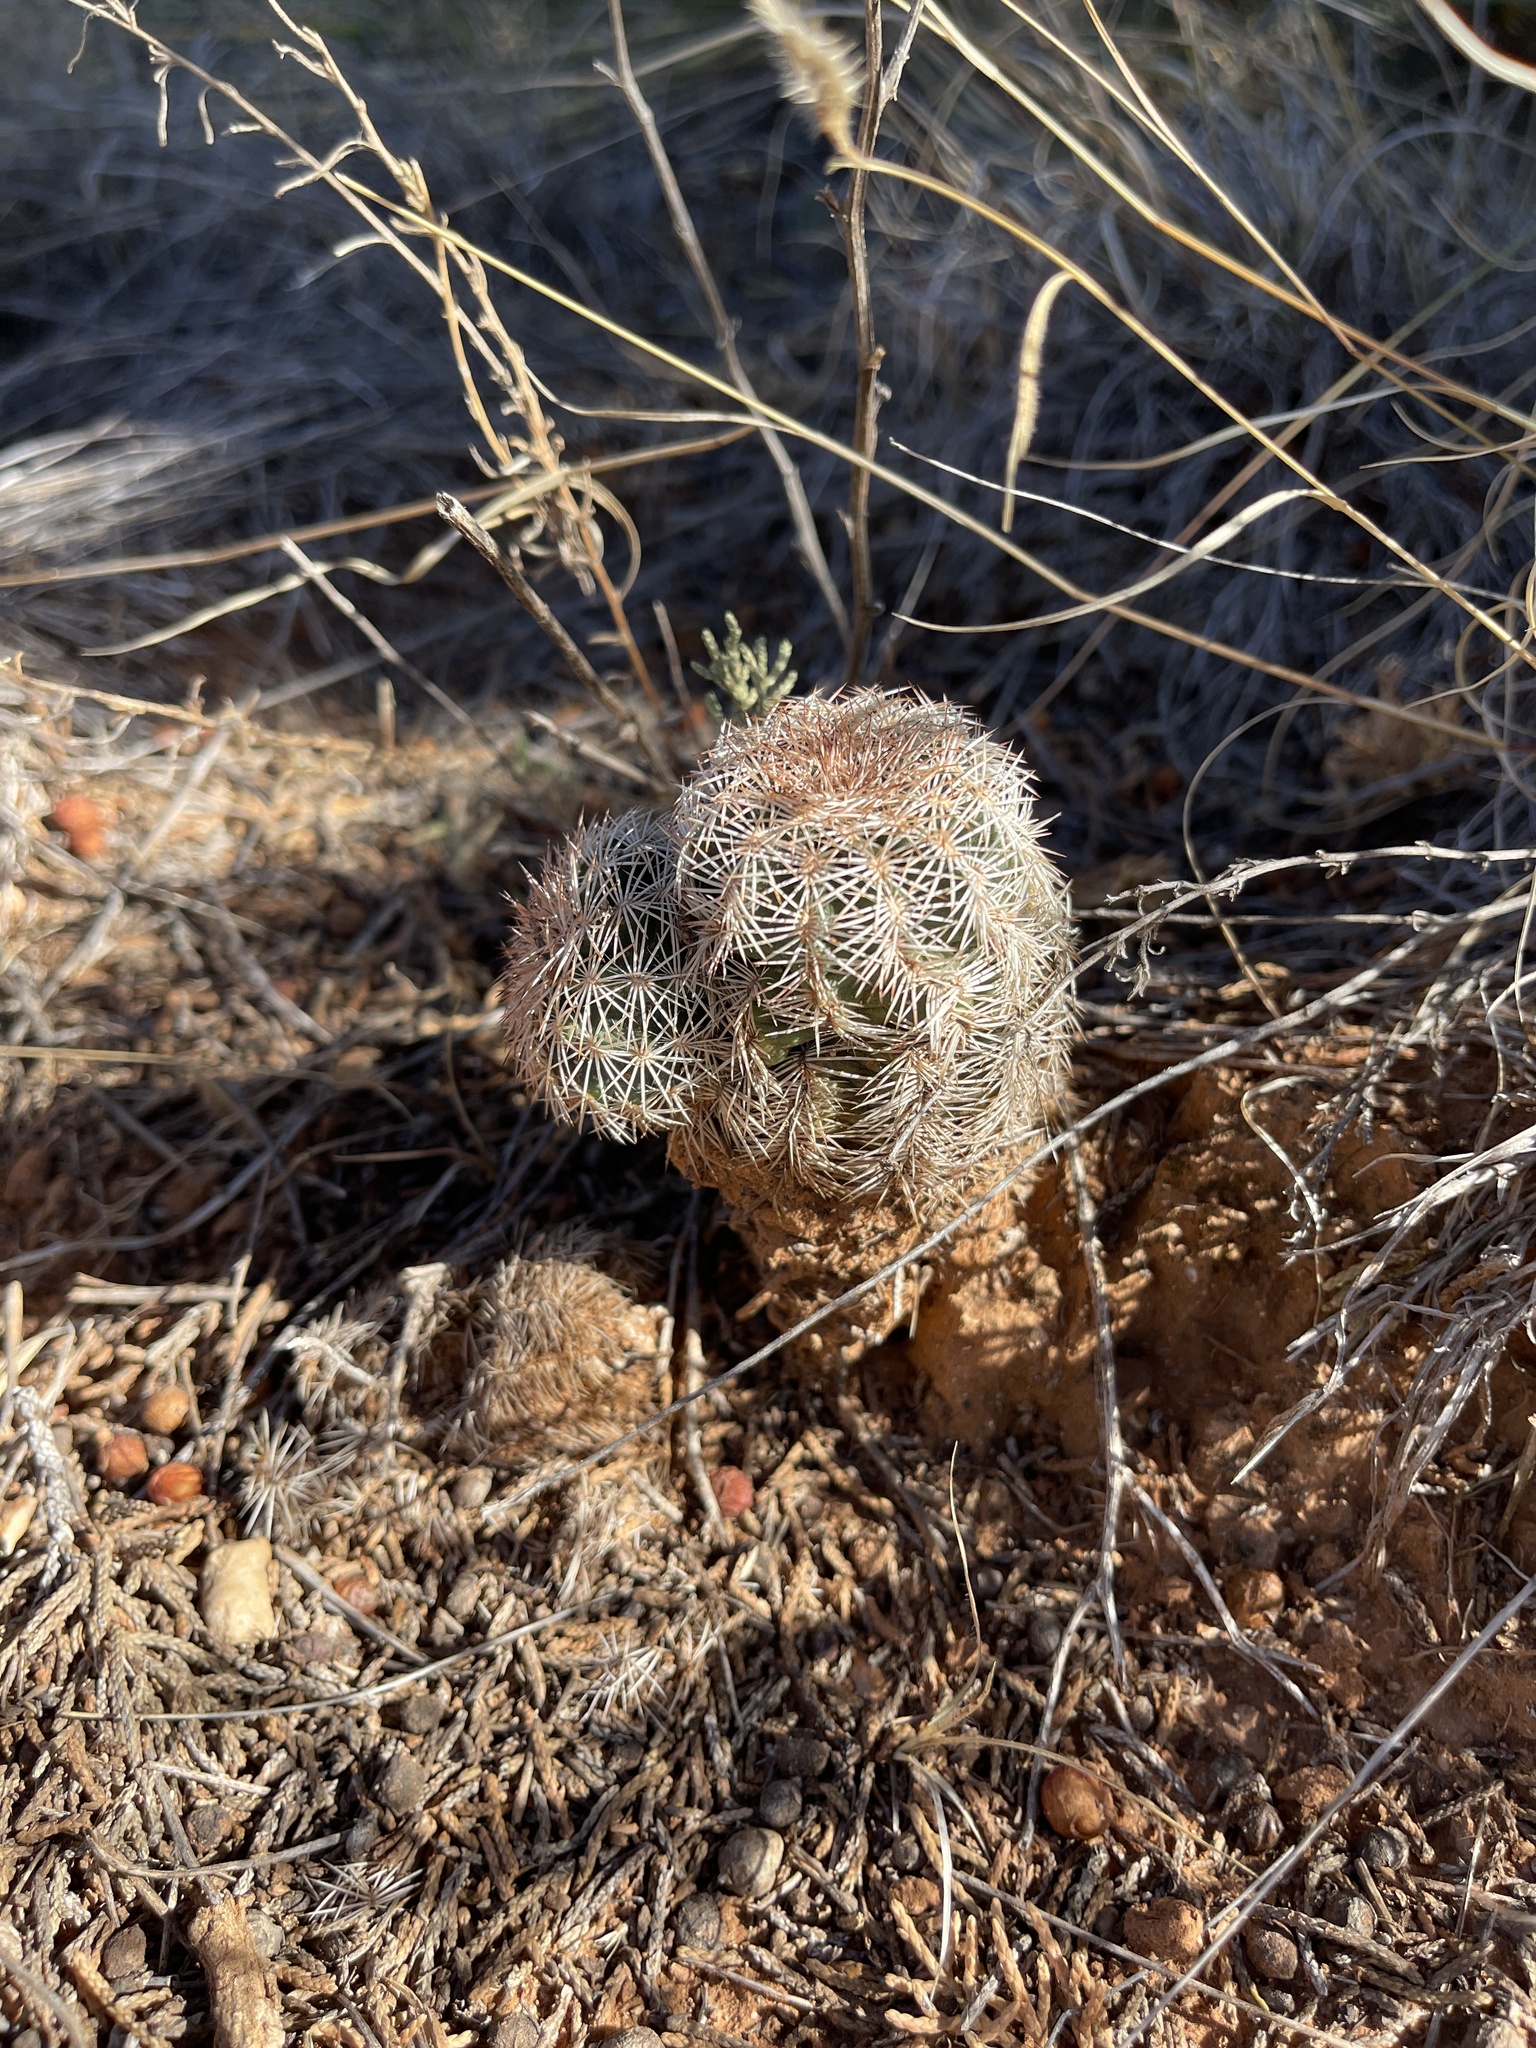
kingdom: Plantae
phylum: Tracheophyta
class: Magnoliopsida
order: Caryophyllales
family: Cactaceae
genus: Echinocereus
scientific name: Echinocereus reichenbachii
